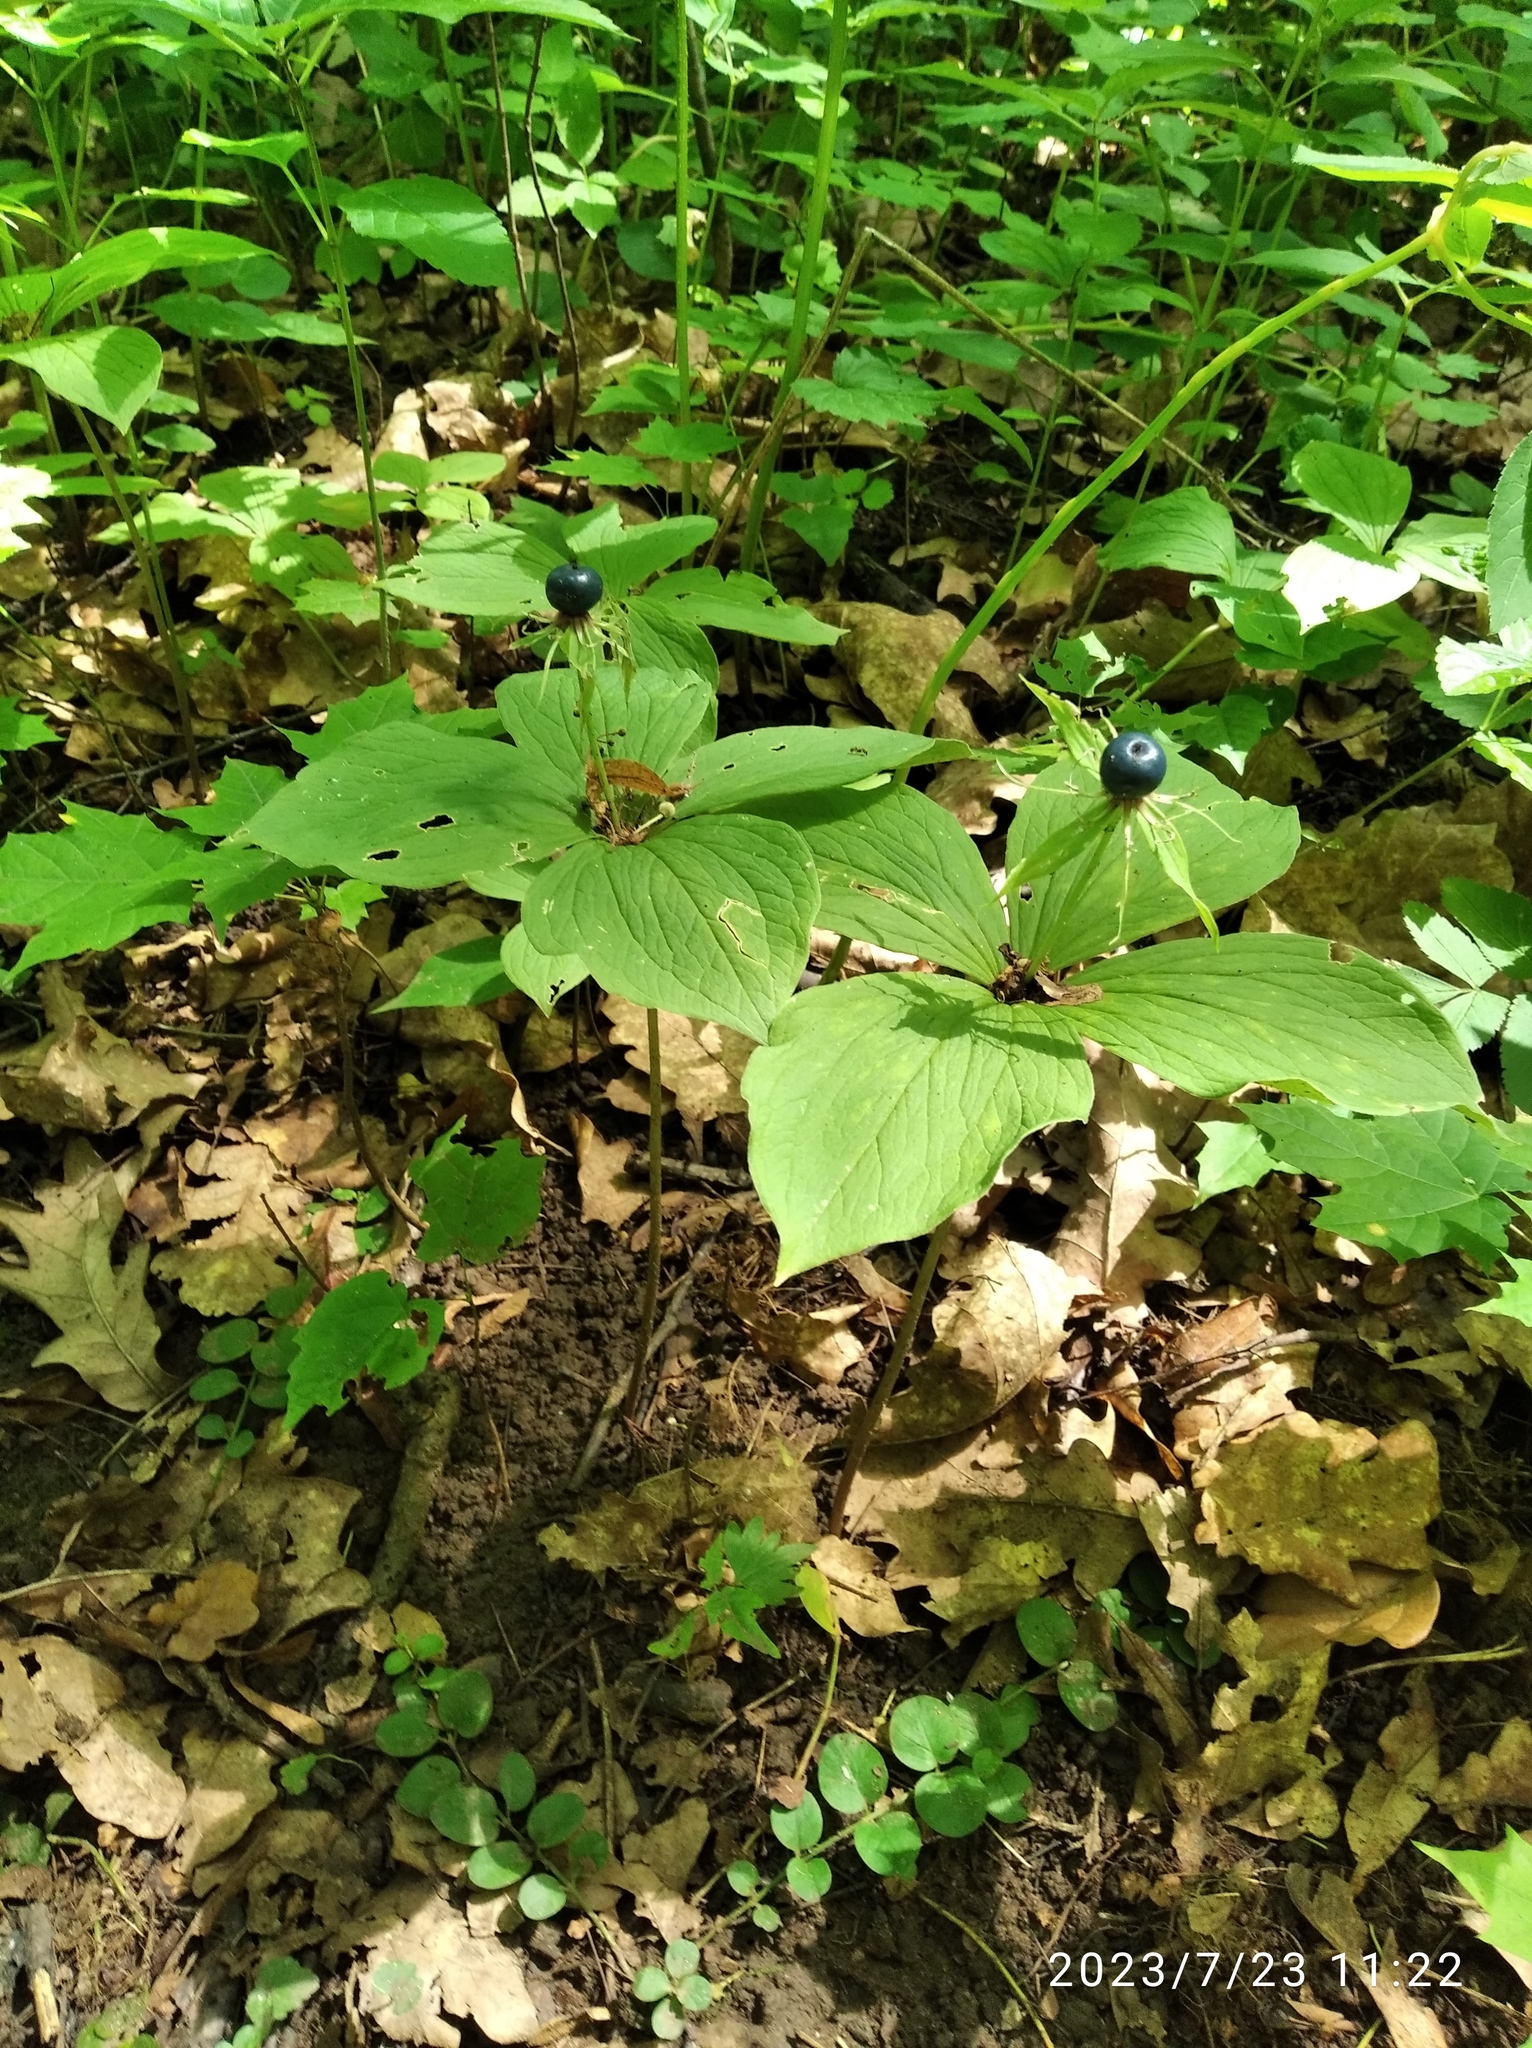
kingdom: Plantae
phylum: Tracheophyta
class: Liliopsida
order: Liliales
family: Melanthiaceae
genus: Paris
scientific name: Paris quadrifolia
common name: Herb-paris
